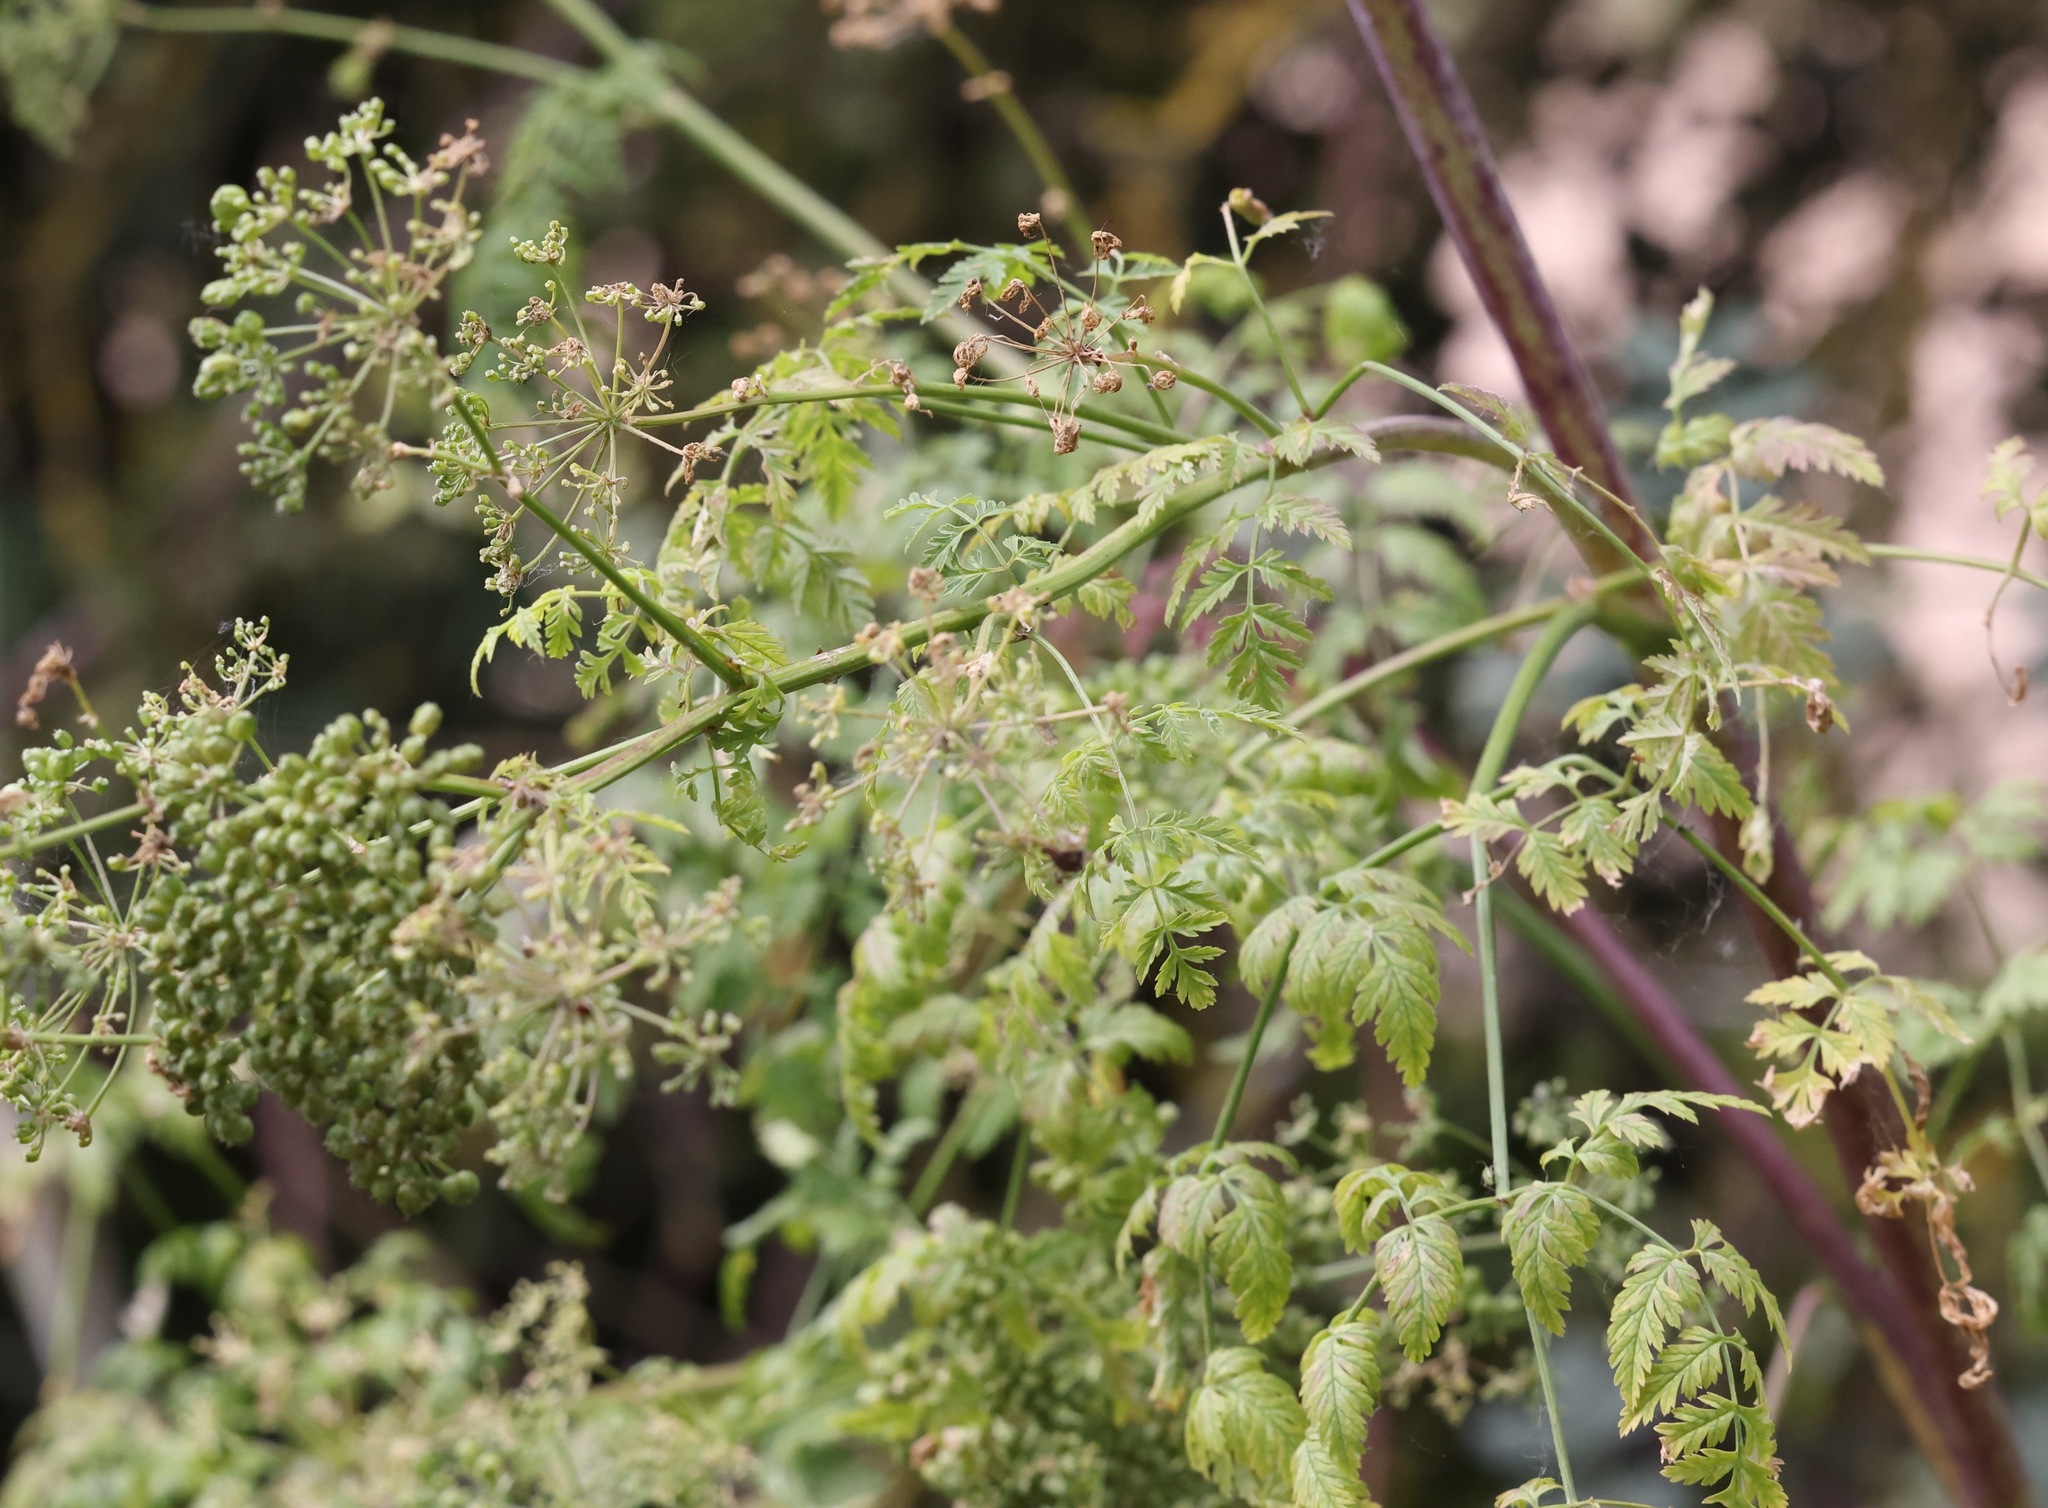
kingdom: Plantae
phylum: Tracheophyta
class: Magnoliopsida
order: Apiales
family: Apiaceae
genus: Conium
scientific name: Conium maculatum
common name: Hemlock
